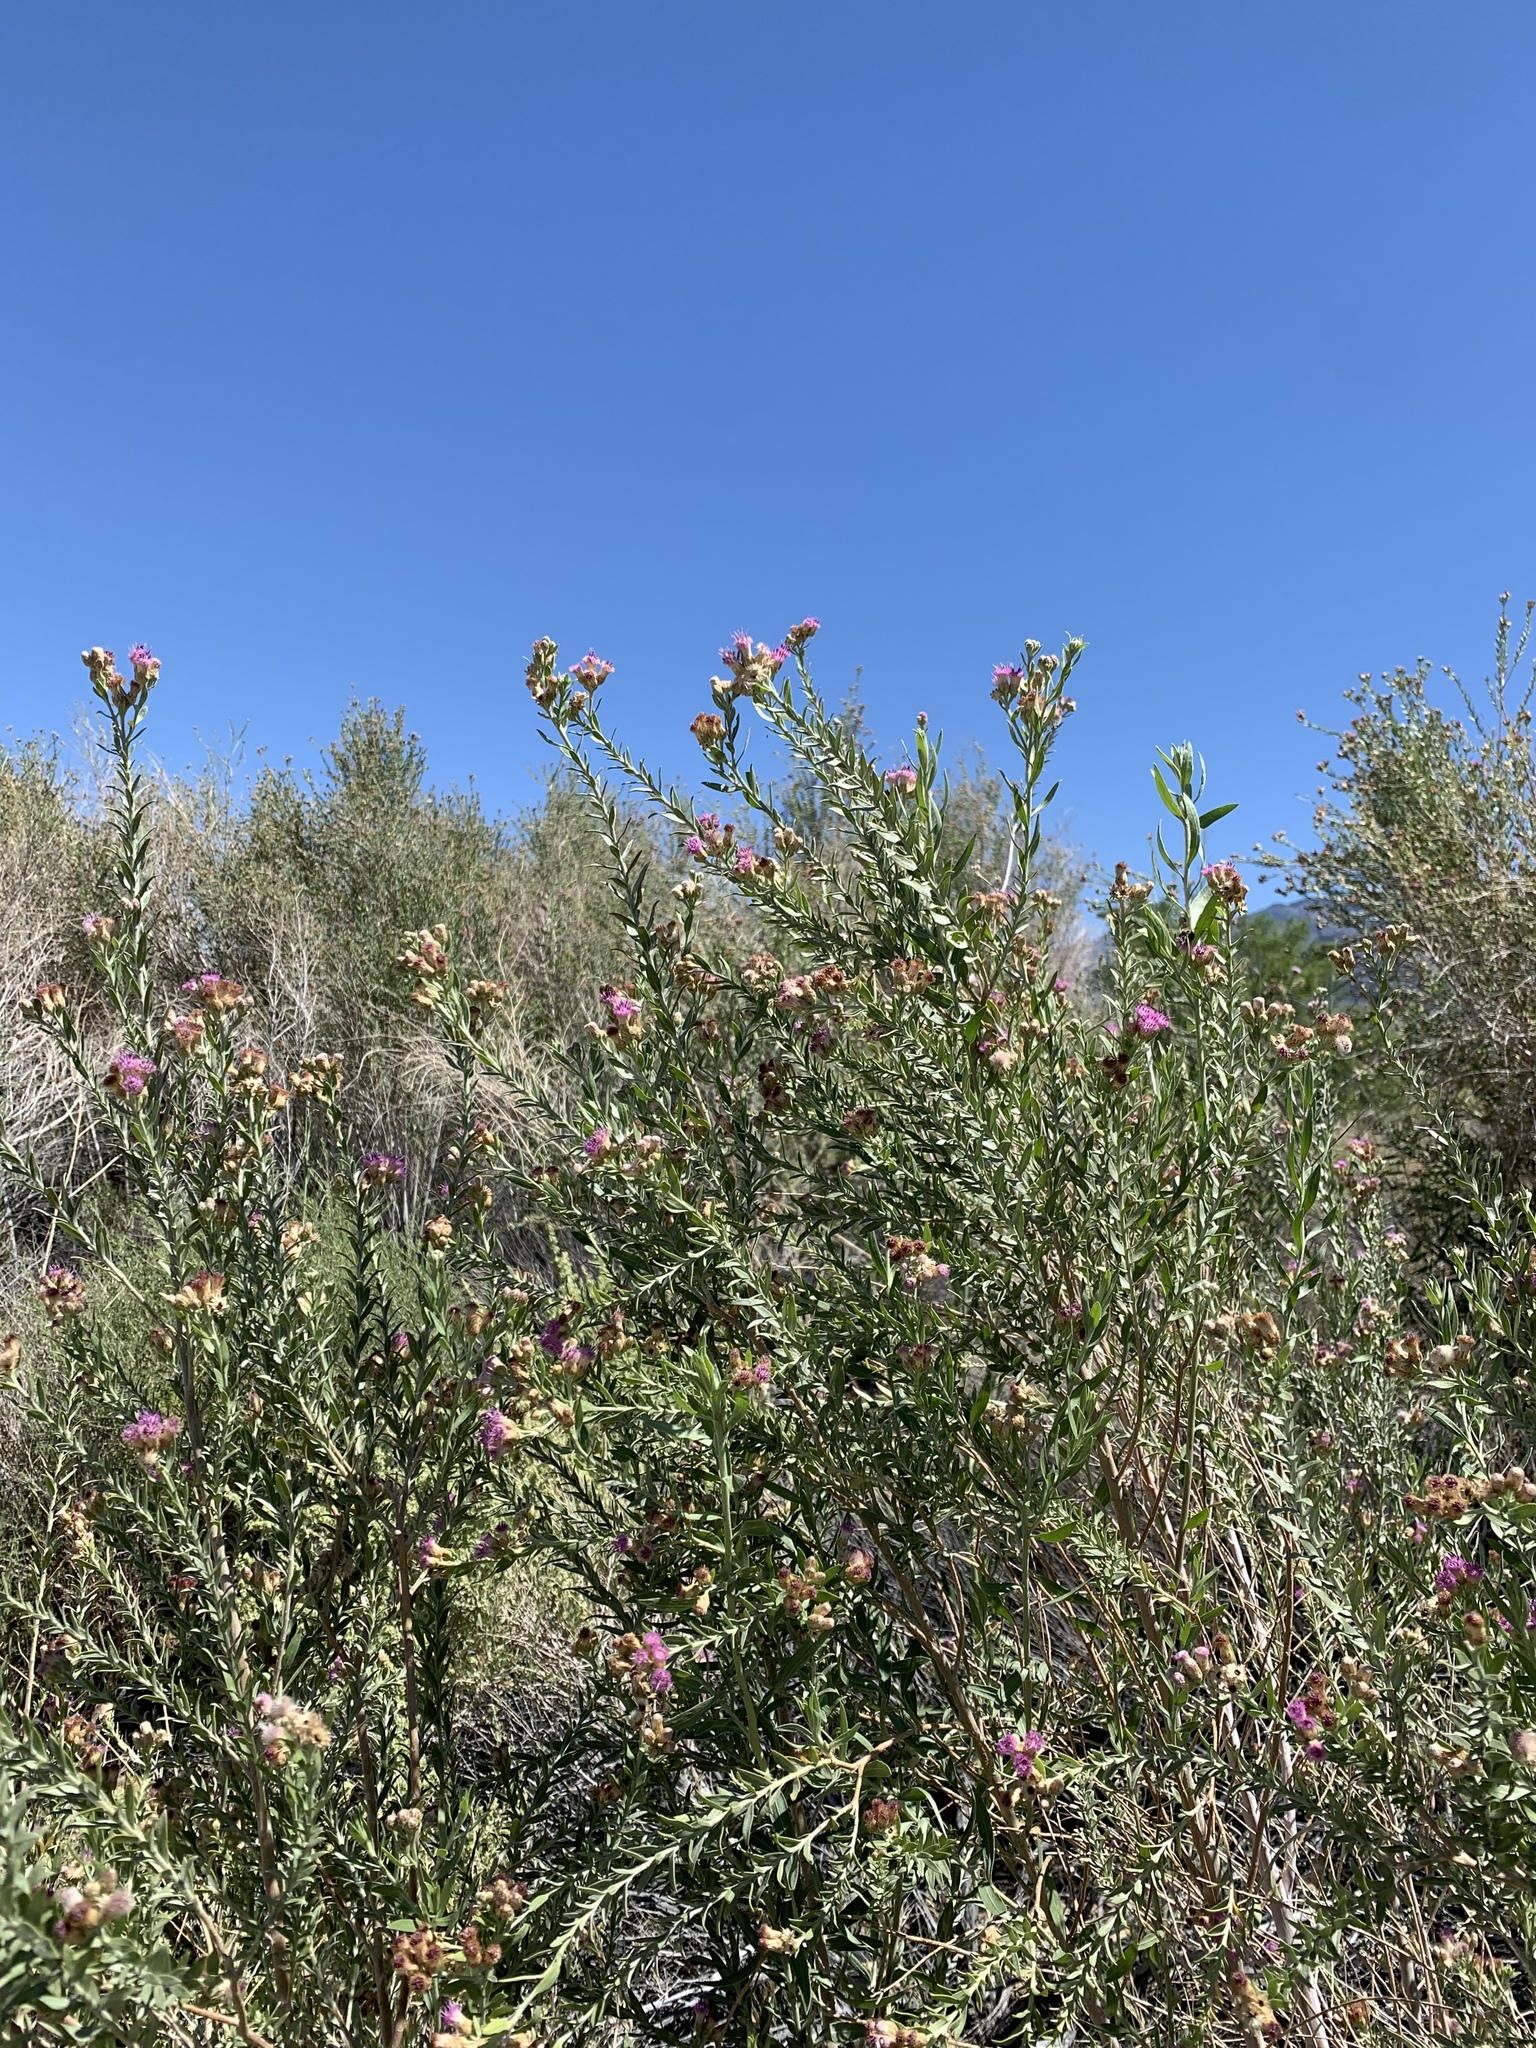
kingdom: Plantae
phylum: Tracheophyta
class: Magnoliopsida
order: Asterales
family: Asteraceae
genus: Pluchea
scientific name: Pluchea sericea
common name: Arrow-weed
